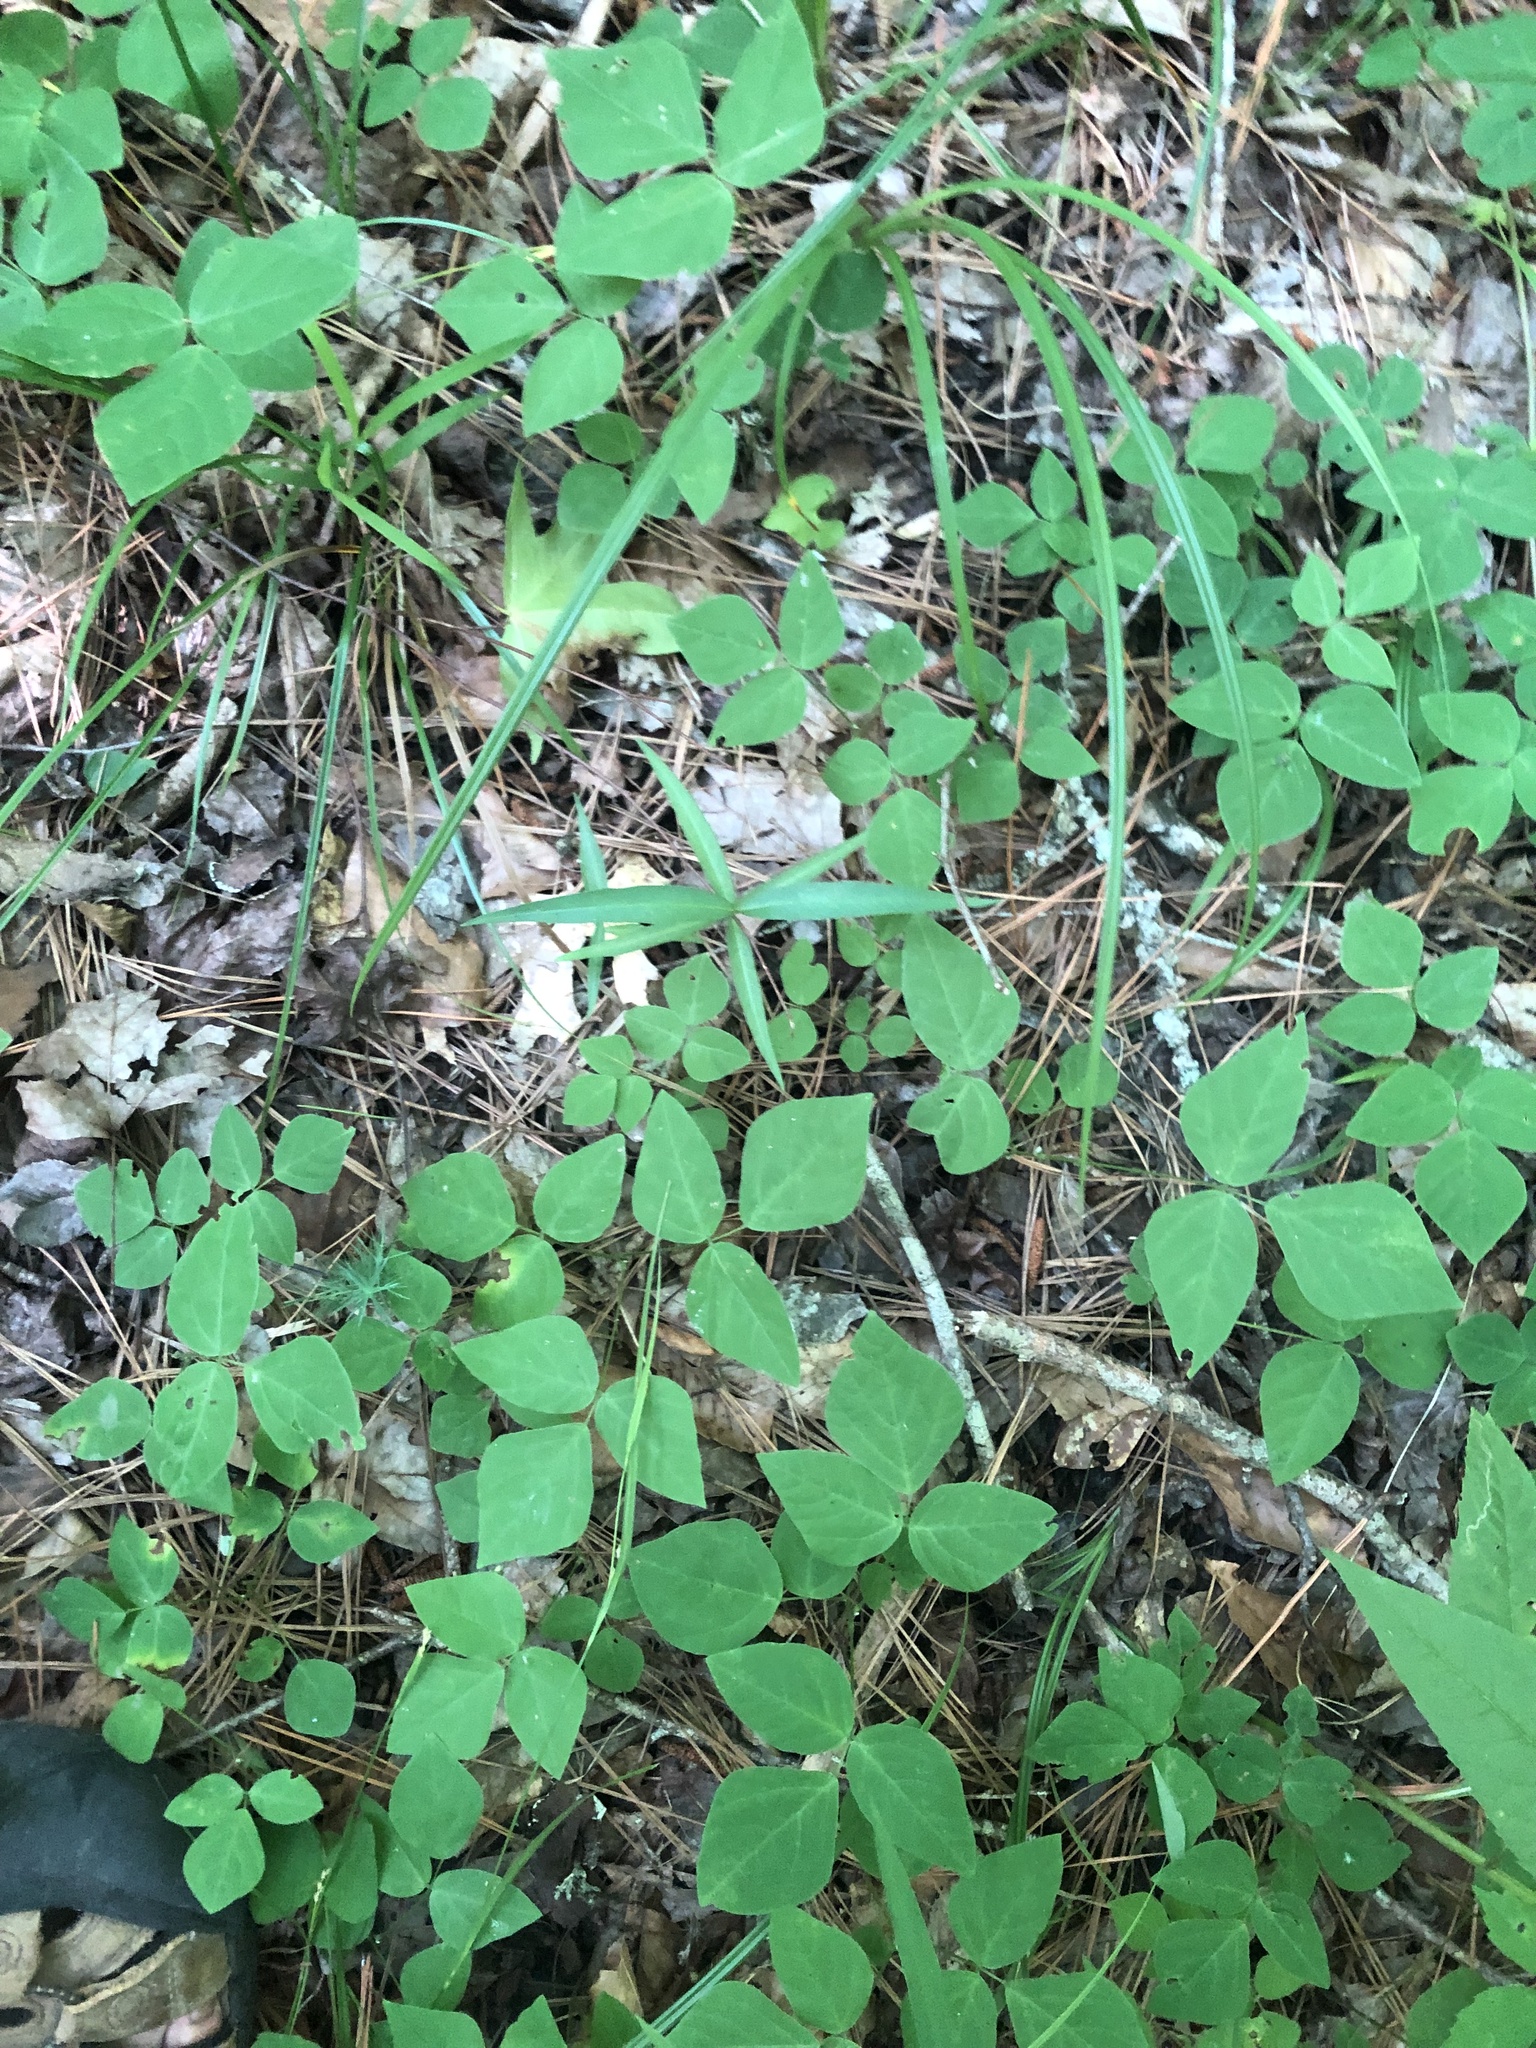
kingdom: Plantae
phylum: Tracheophyta
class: Magnoliopsida
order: Fabales
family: Fabaceae
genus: Hylodesmum
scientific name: Hylodesmum pauciflorum
